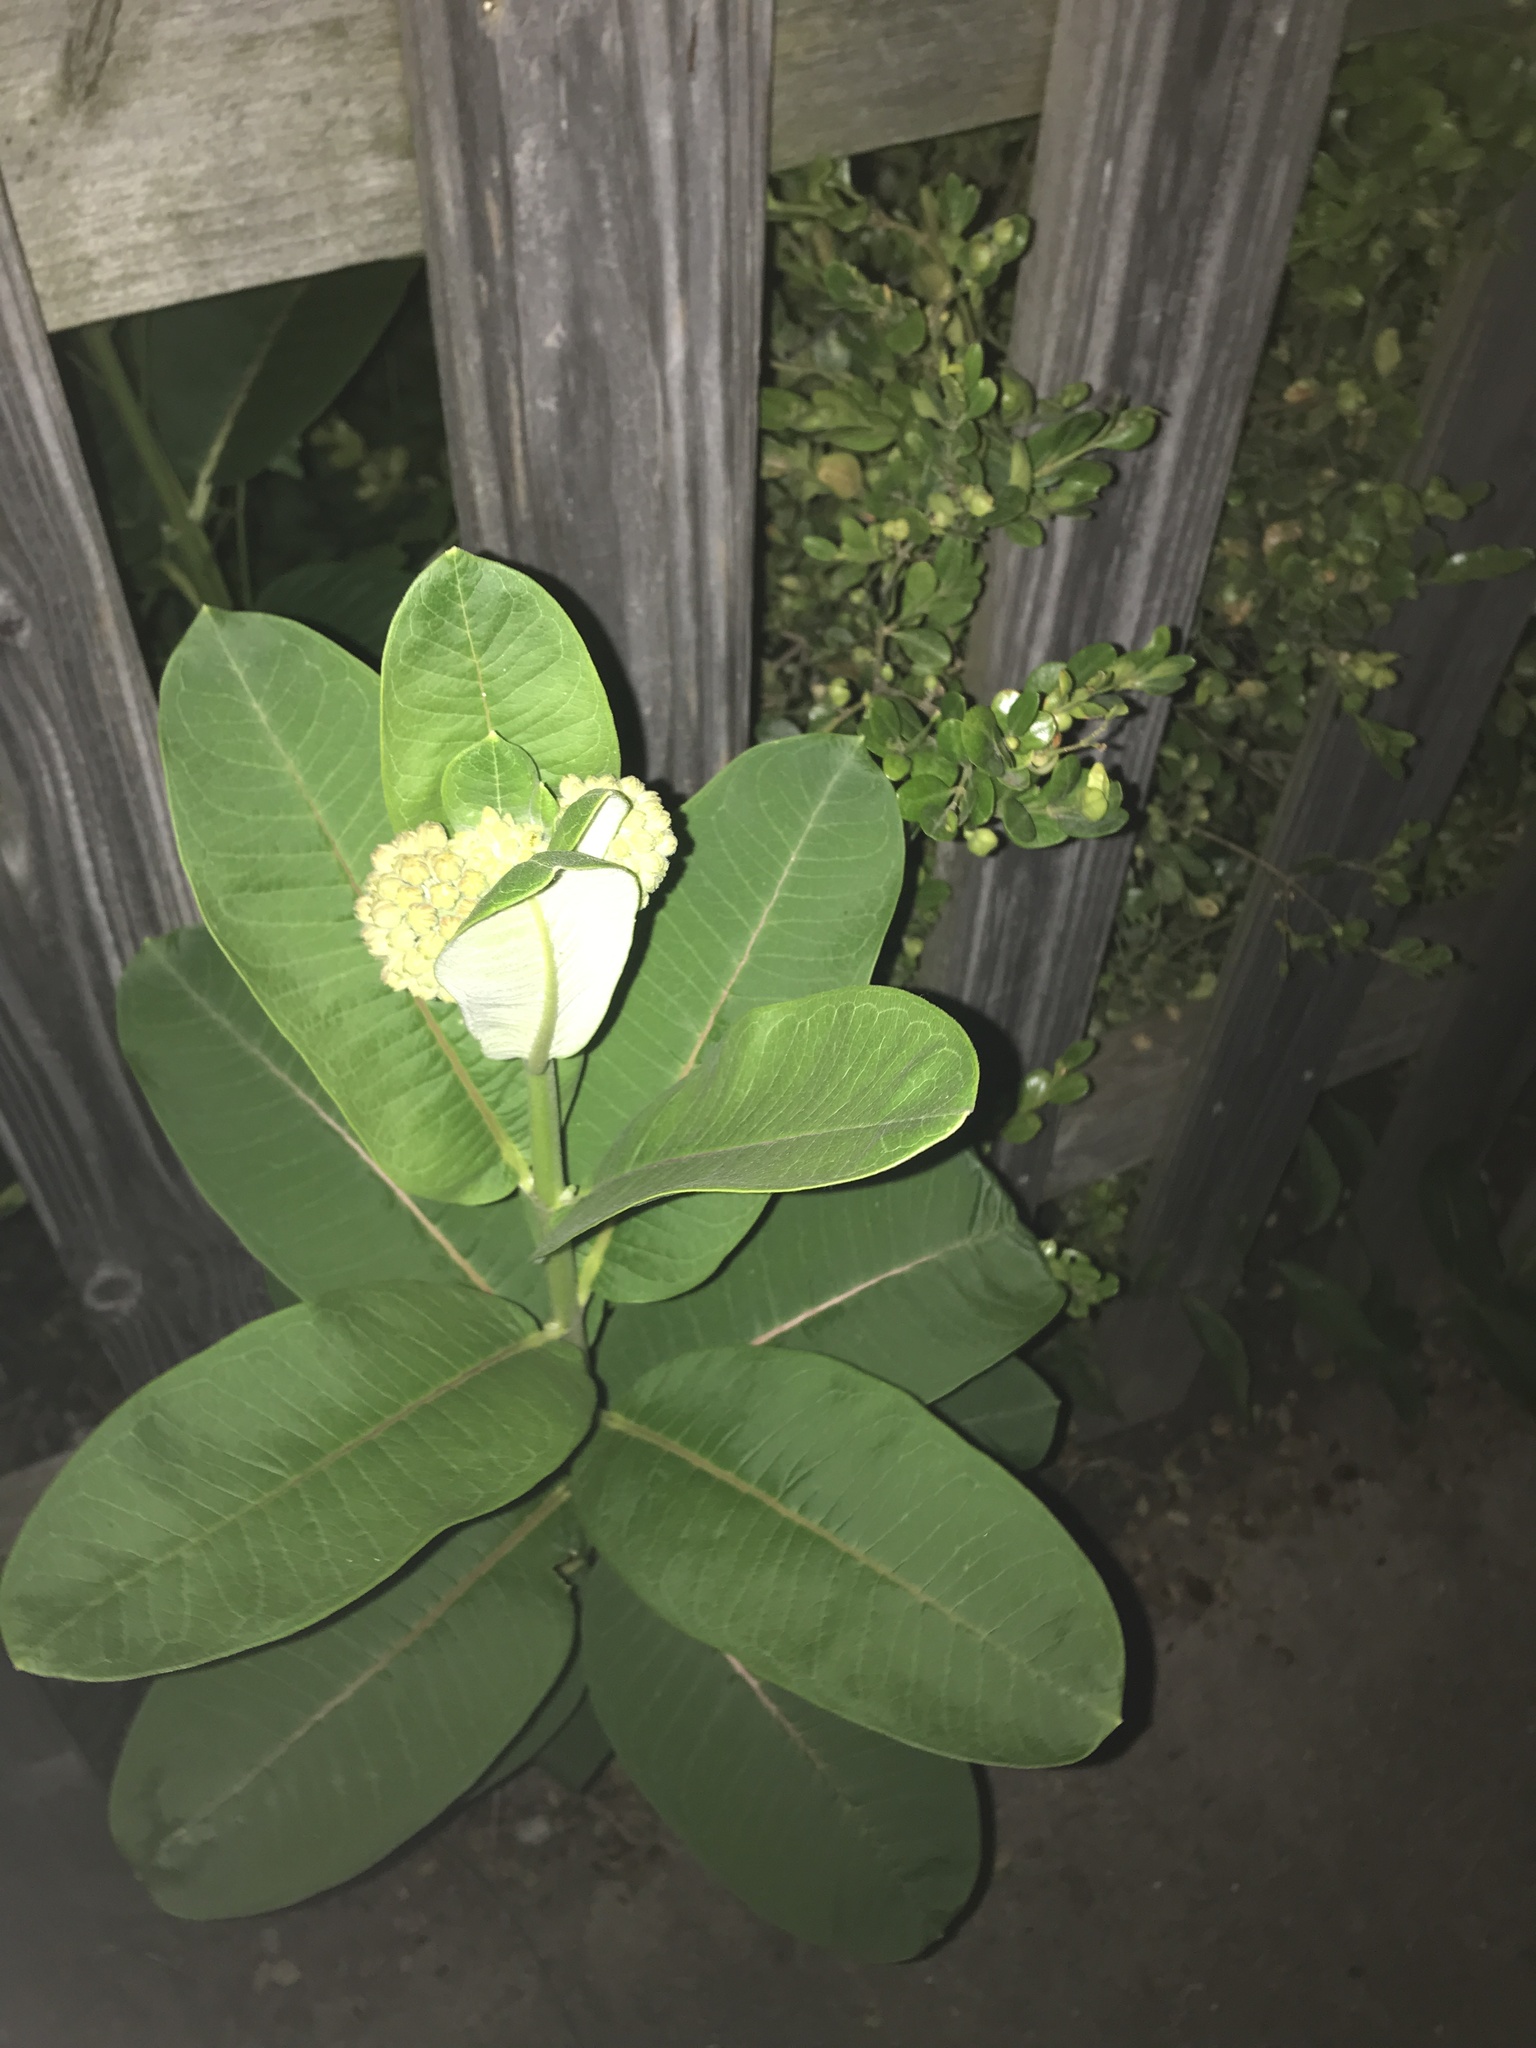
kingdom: Plantae
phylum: Tracheophyta
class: Magnoliopsida
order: Gentianales
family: Apocynaceae
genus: Asclepias
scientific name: Asclepias syriaca
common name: Common milkweed
